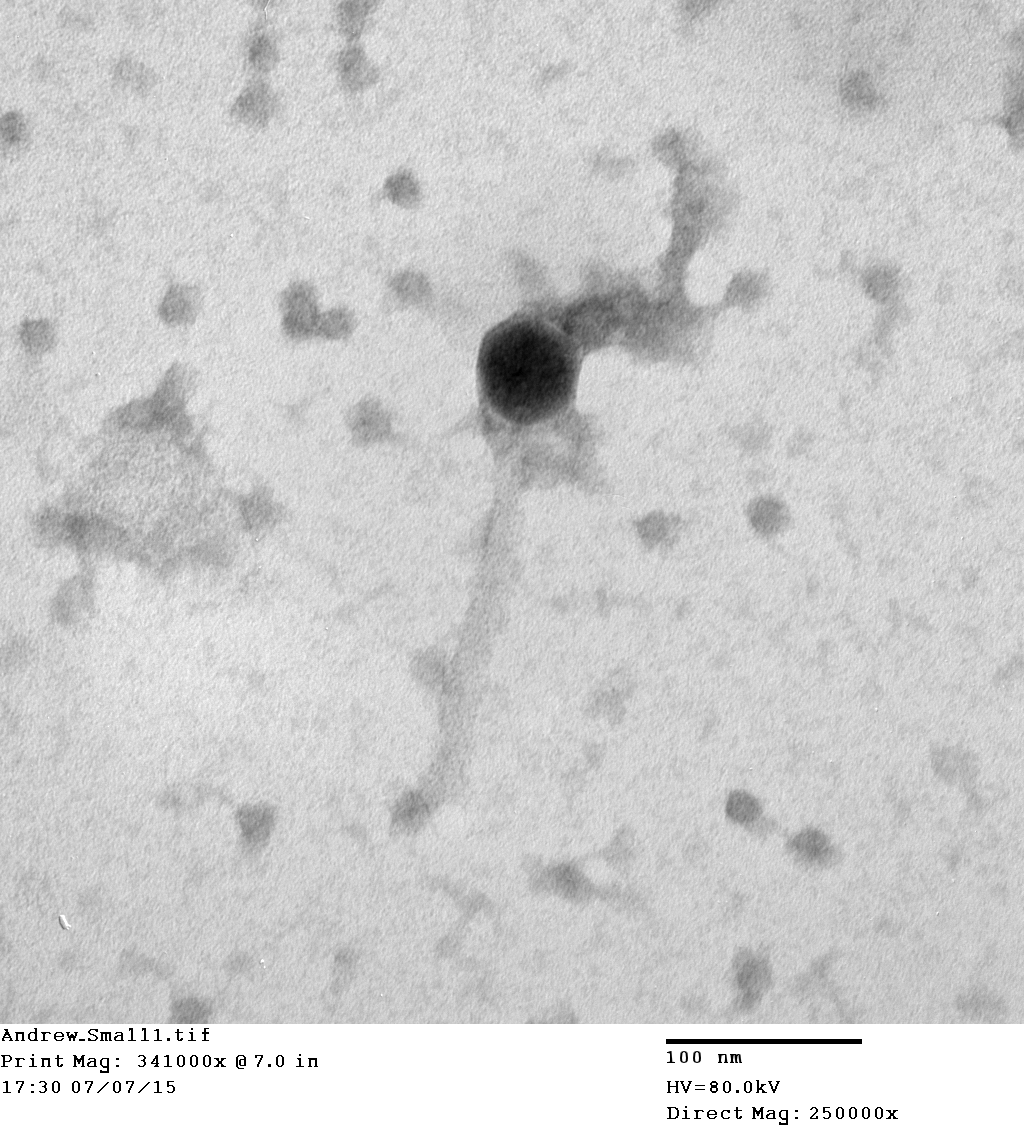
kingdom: Viruses
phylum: Uroviricota
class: Caudoviricetes
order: Caudovirales
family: Myoviridae
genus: Klausavirus
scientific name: Klausavirus princesstrina
